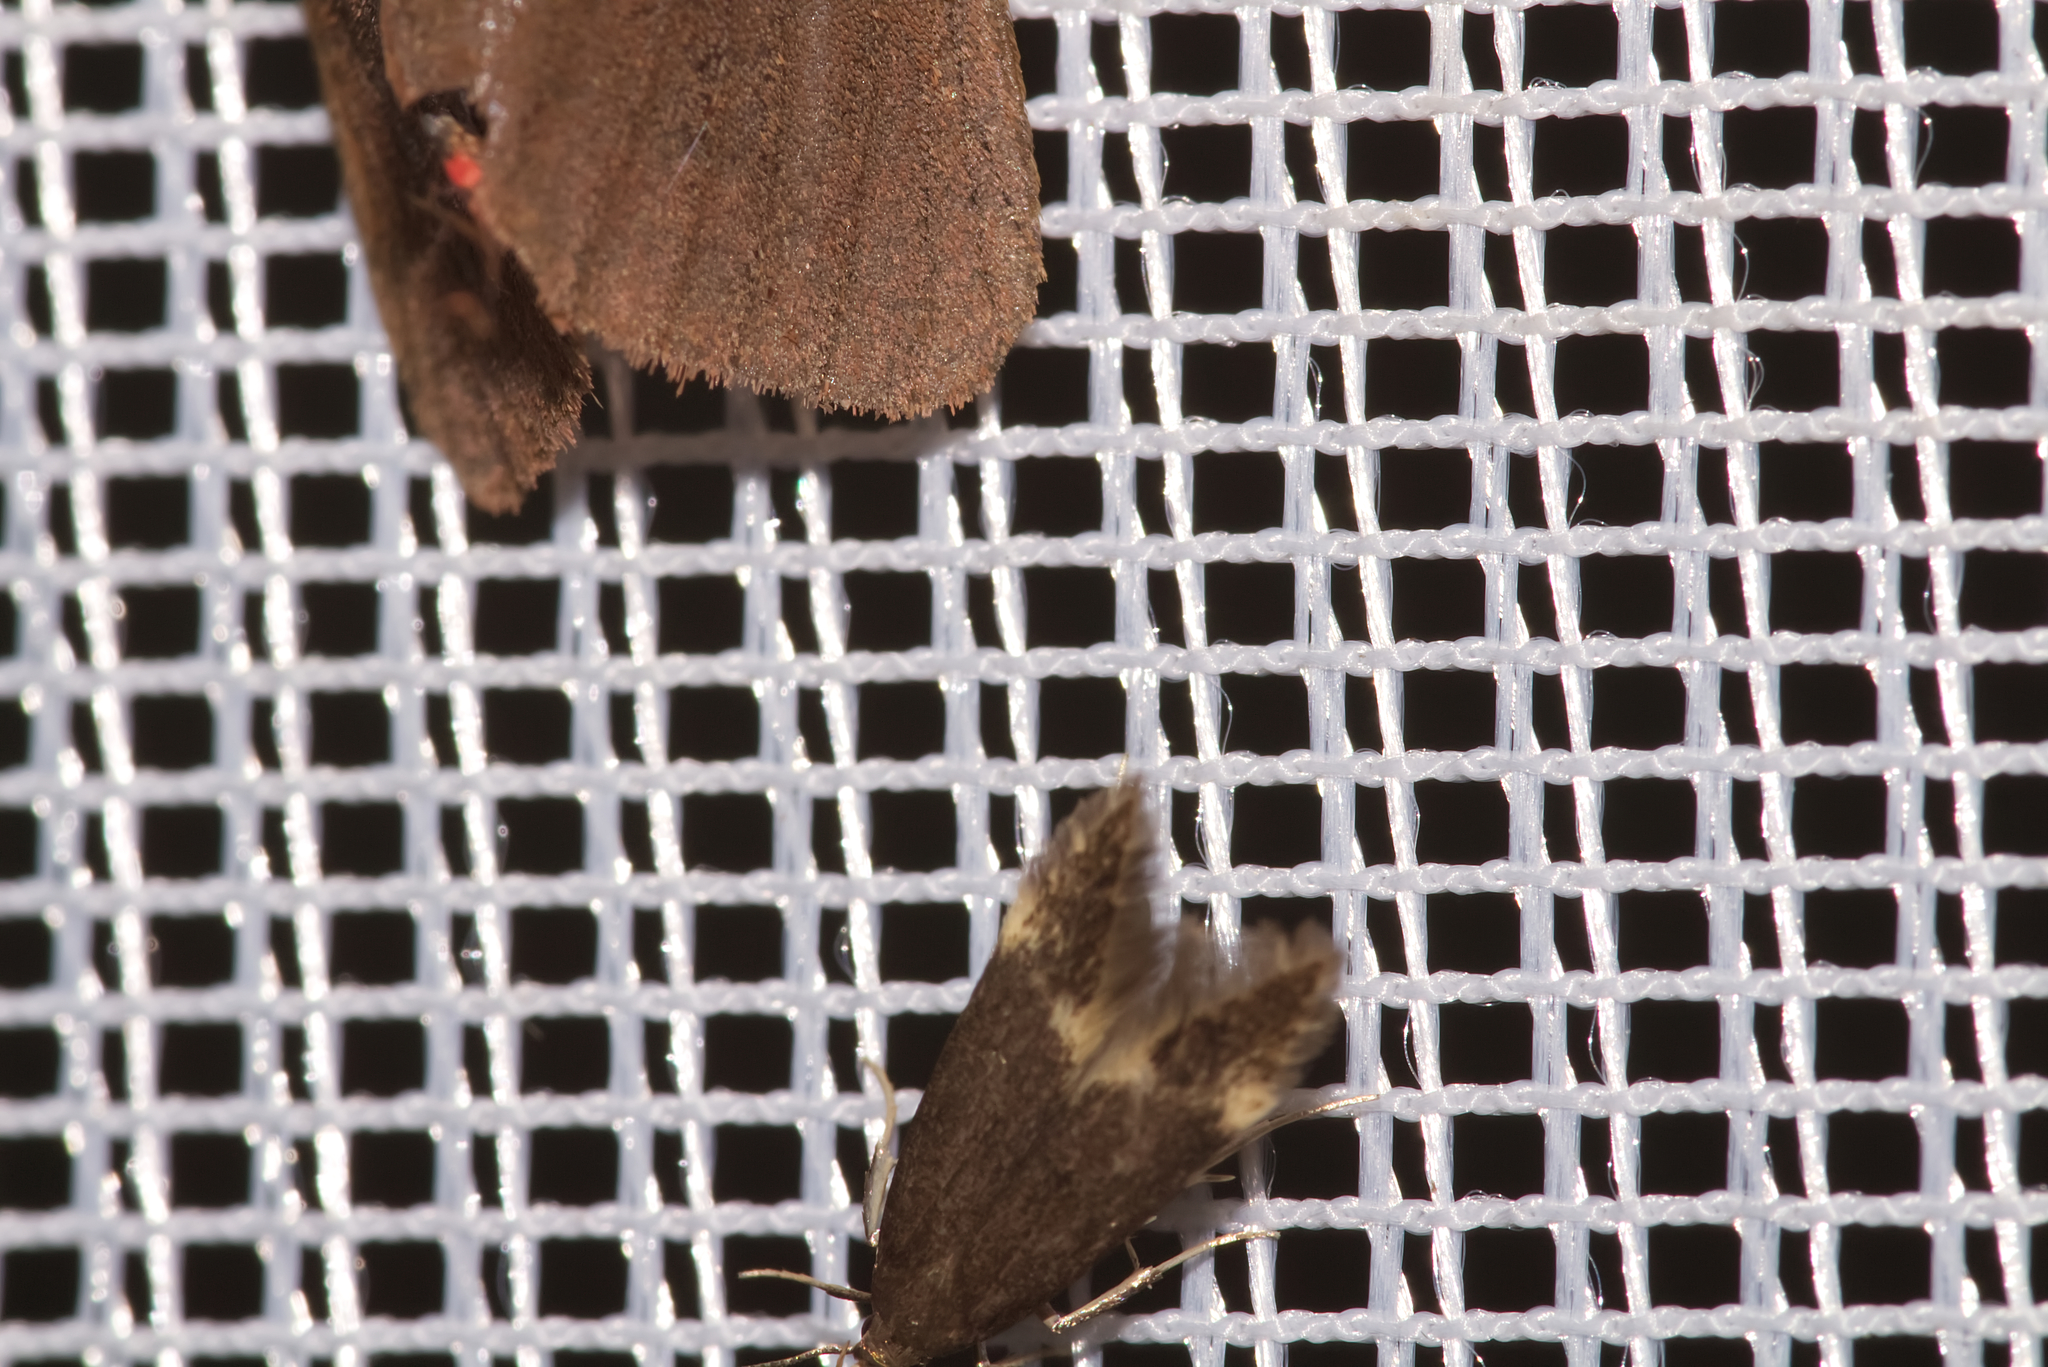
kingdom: Animalia
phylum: Arthropoda
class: Insecta
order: Lepidoptera
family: Oecophoridae
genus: Borkhausenia
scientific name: Borkhausenia minutella
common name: Thatch tubic
